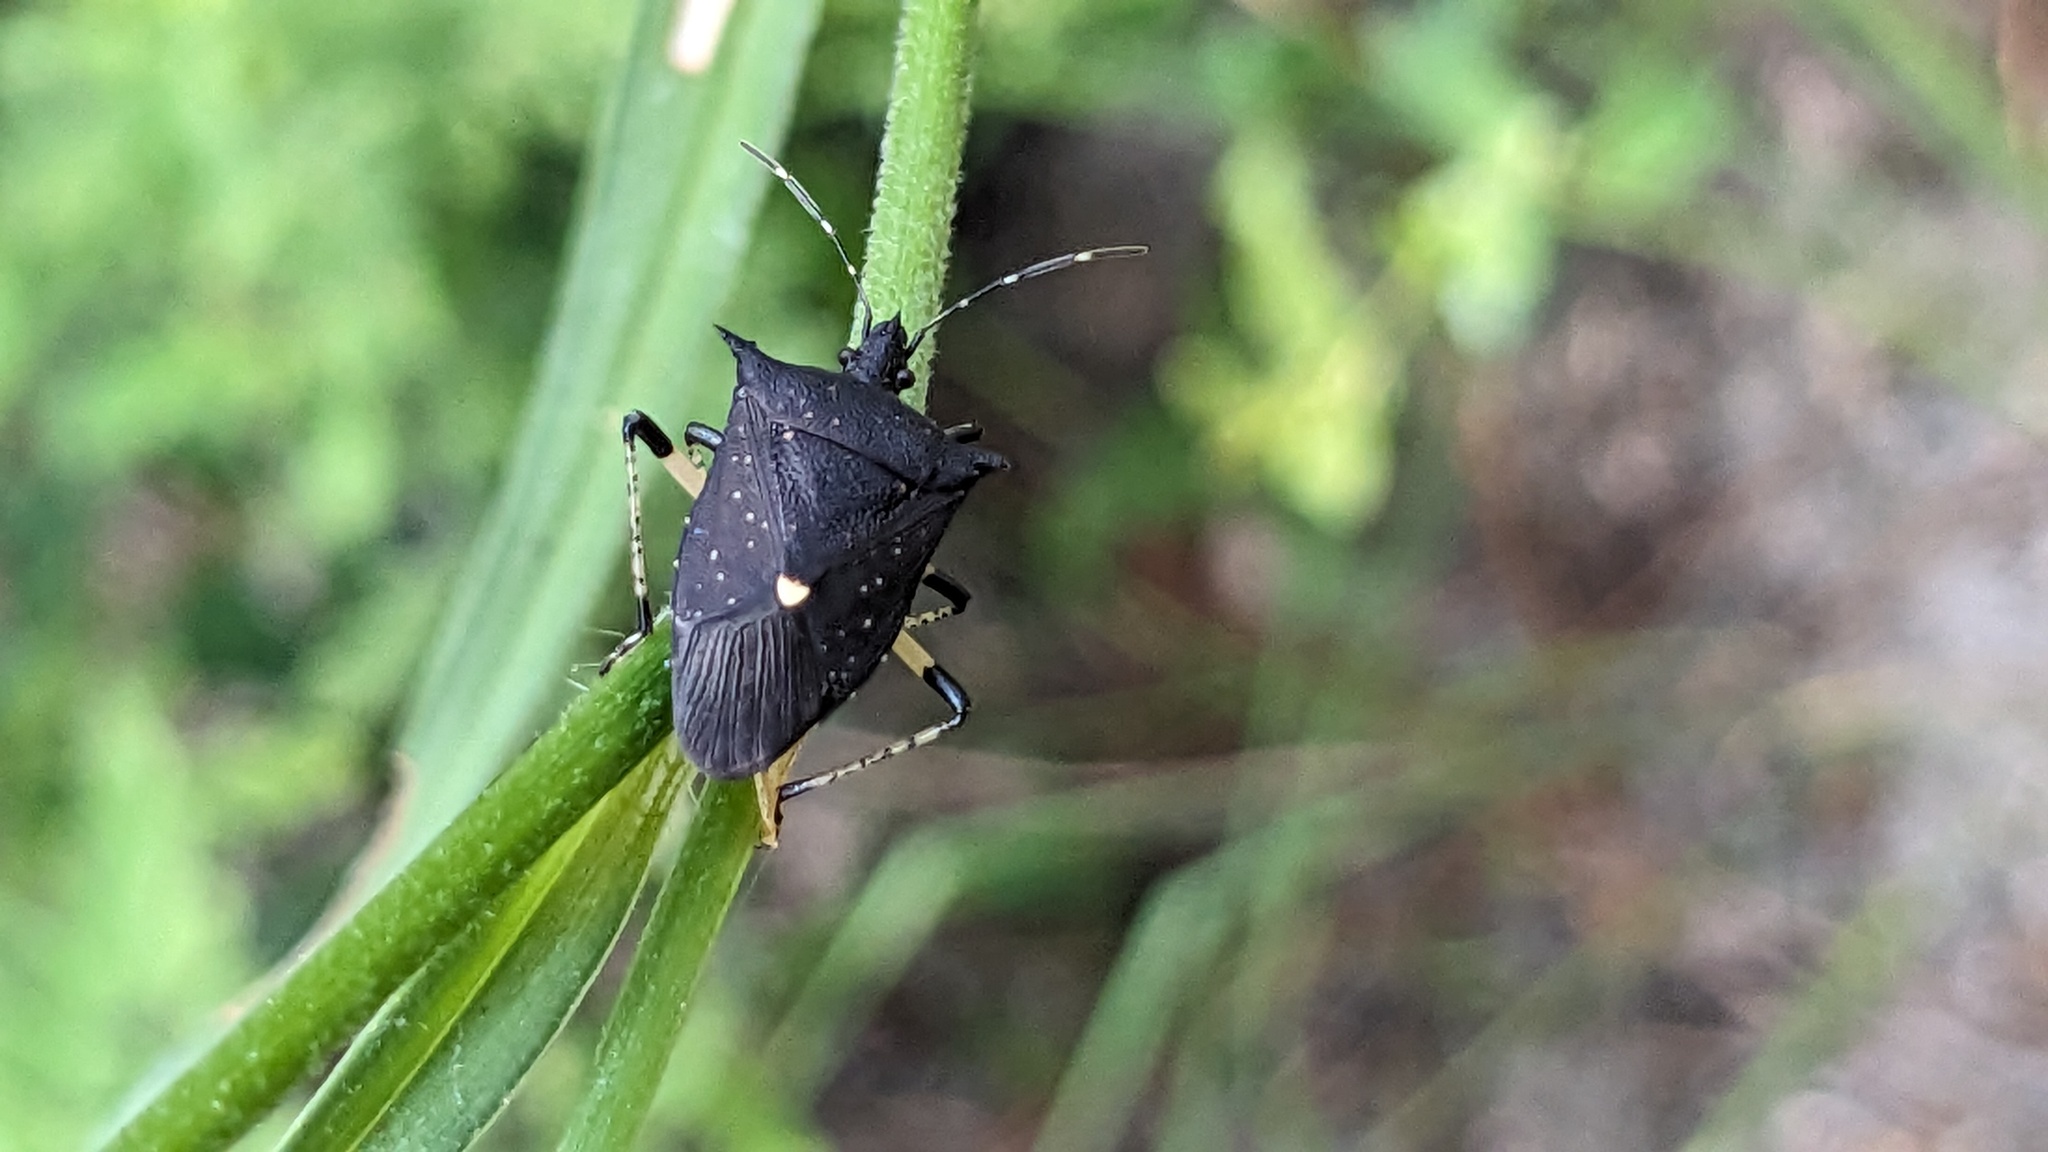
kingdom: Animalia
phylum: Arthropoda
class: Insecta
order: Hemiptera
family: Pentatomidae
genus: Proxys
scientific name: Proxys punctulatus
